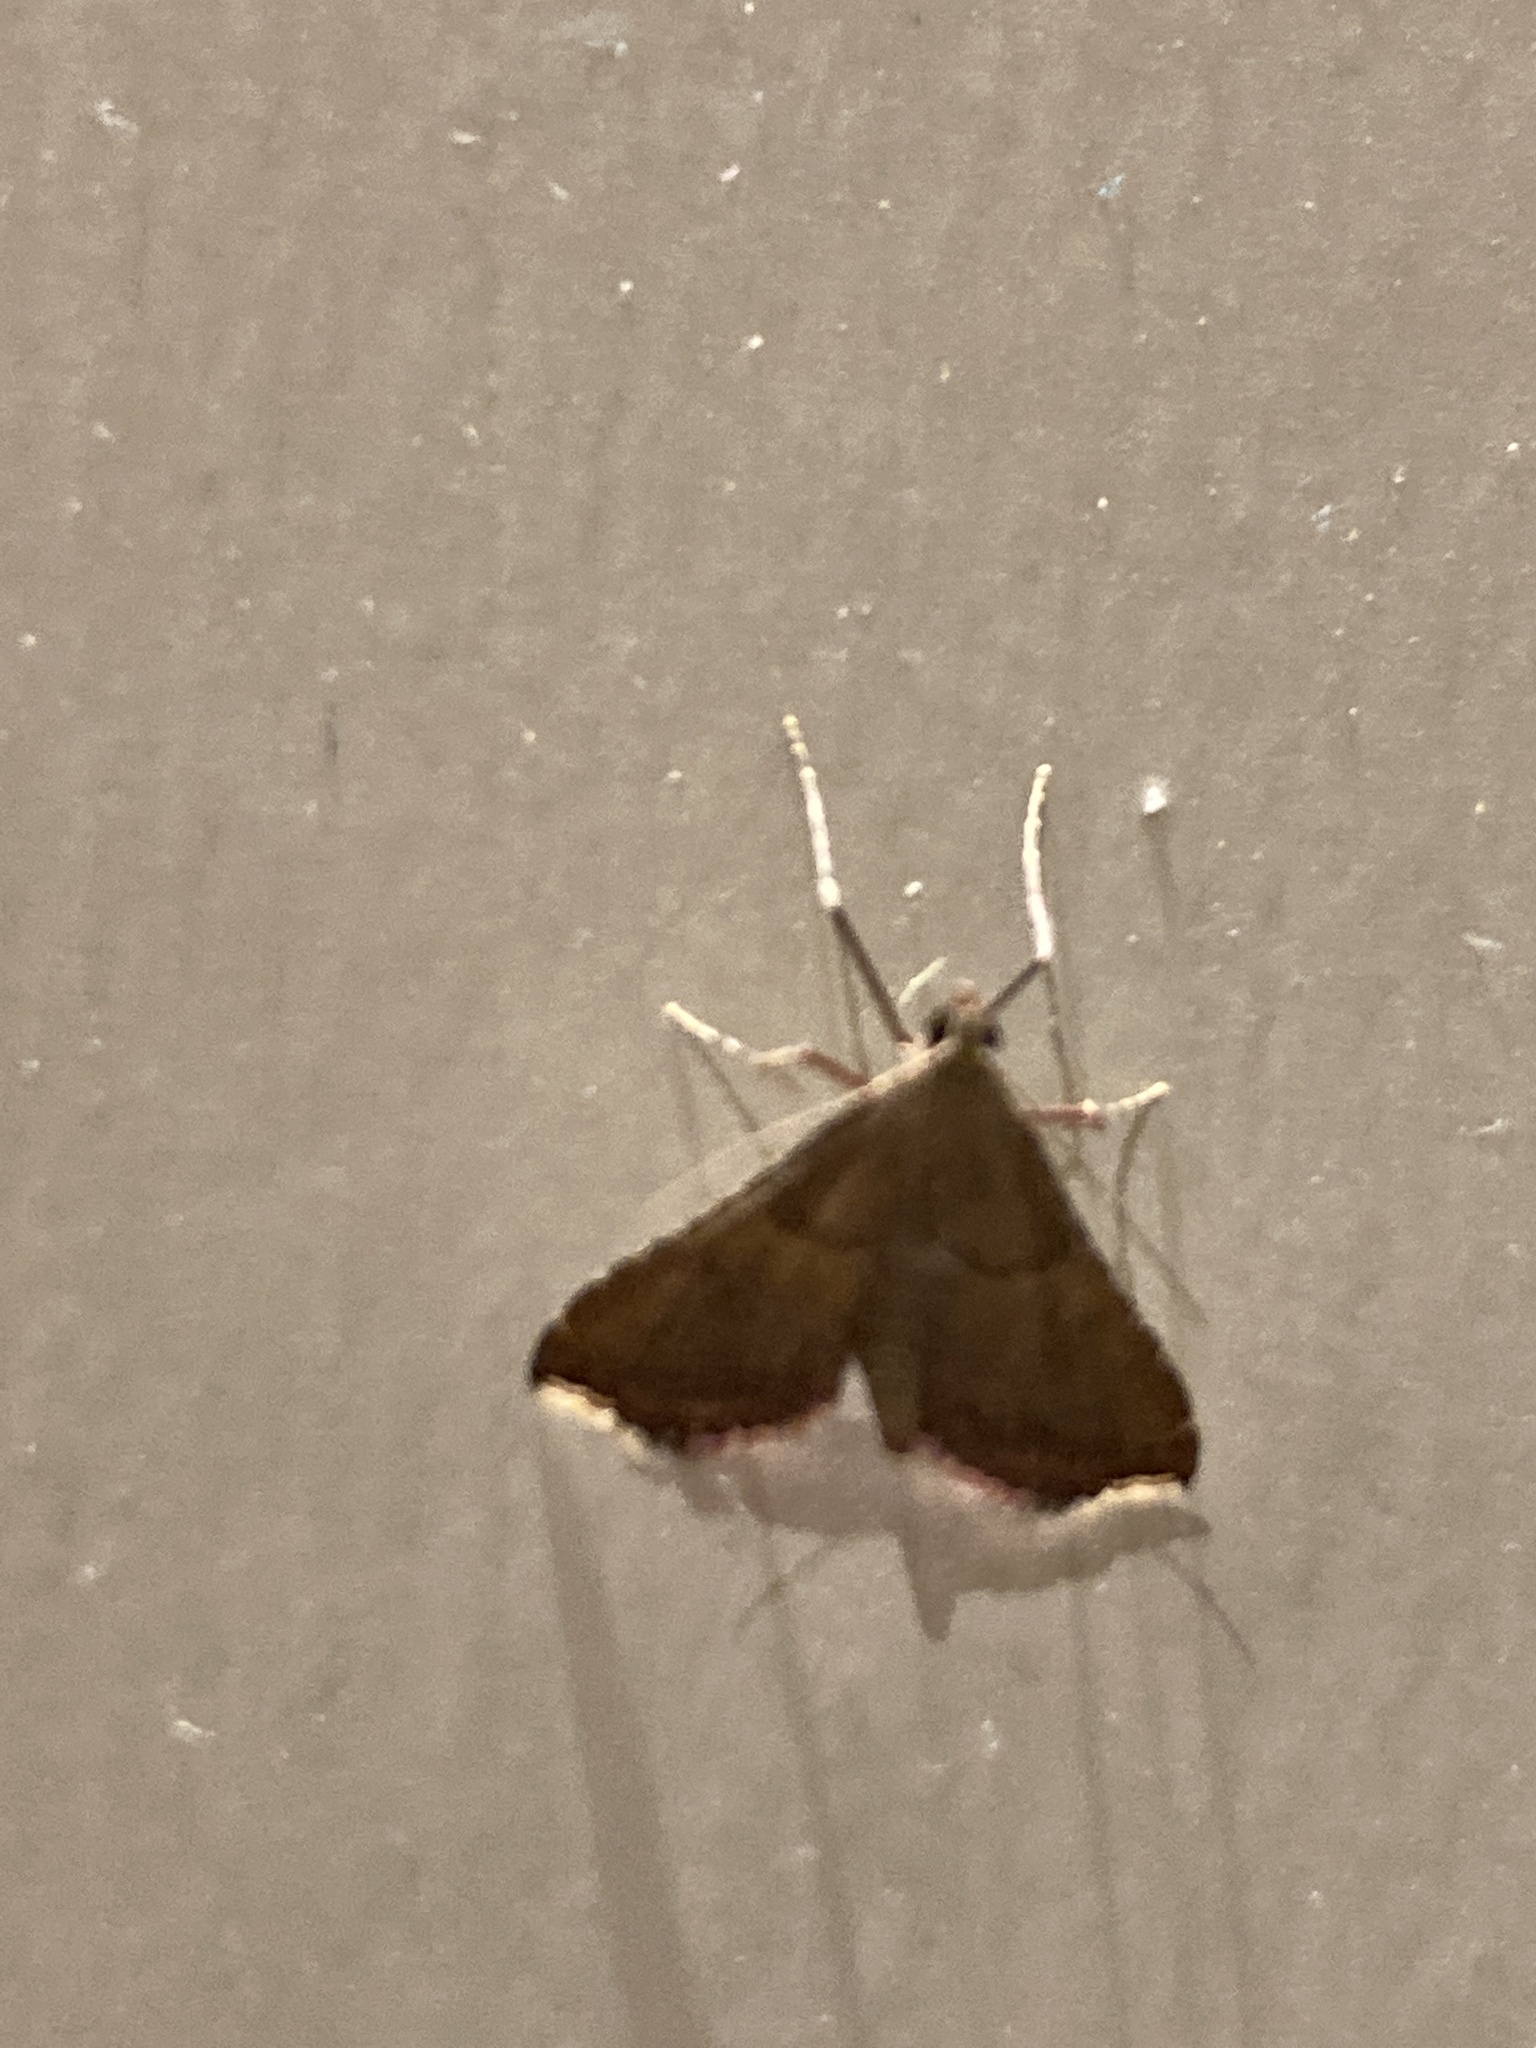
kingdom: Animalia
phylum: Arthropoda
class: Insecta
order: Lepidoptera
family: Pyralidae
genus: Endotricha
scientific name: Endotricha flammealis
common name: Rosy tabby
